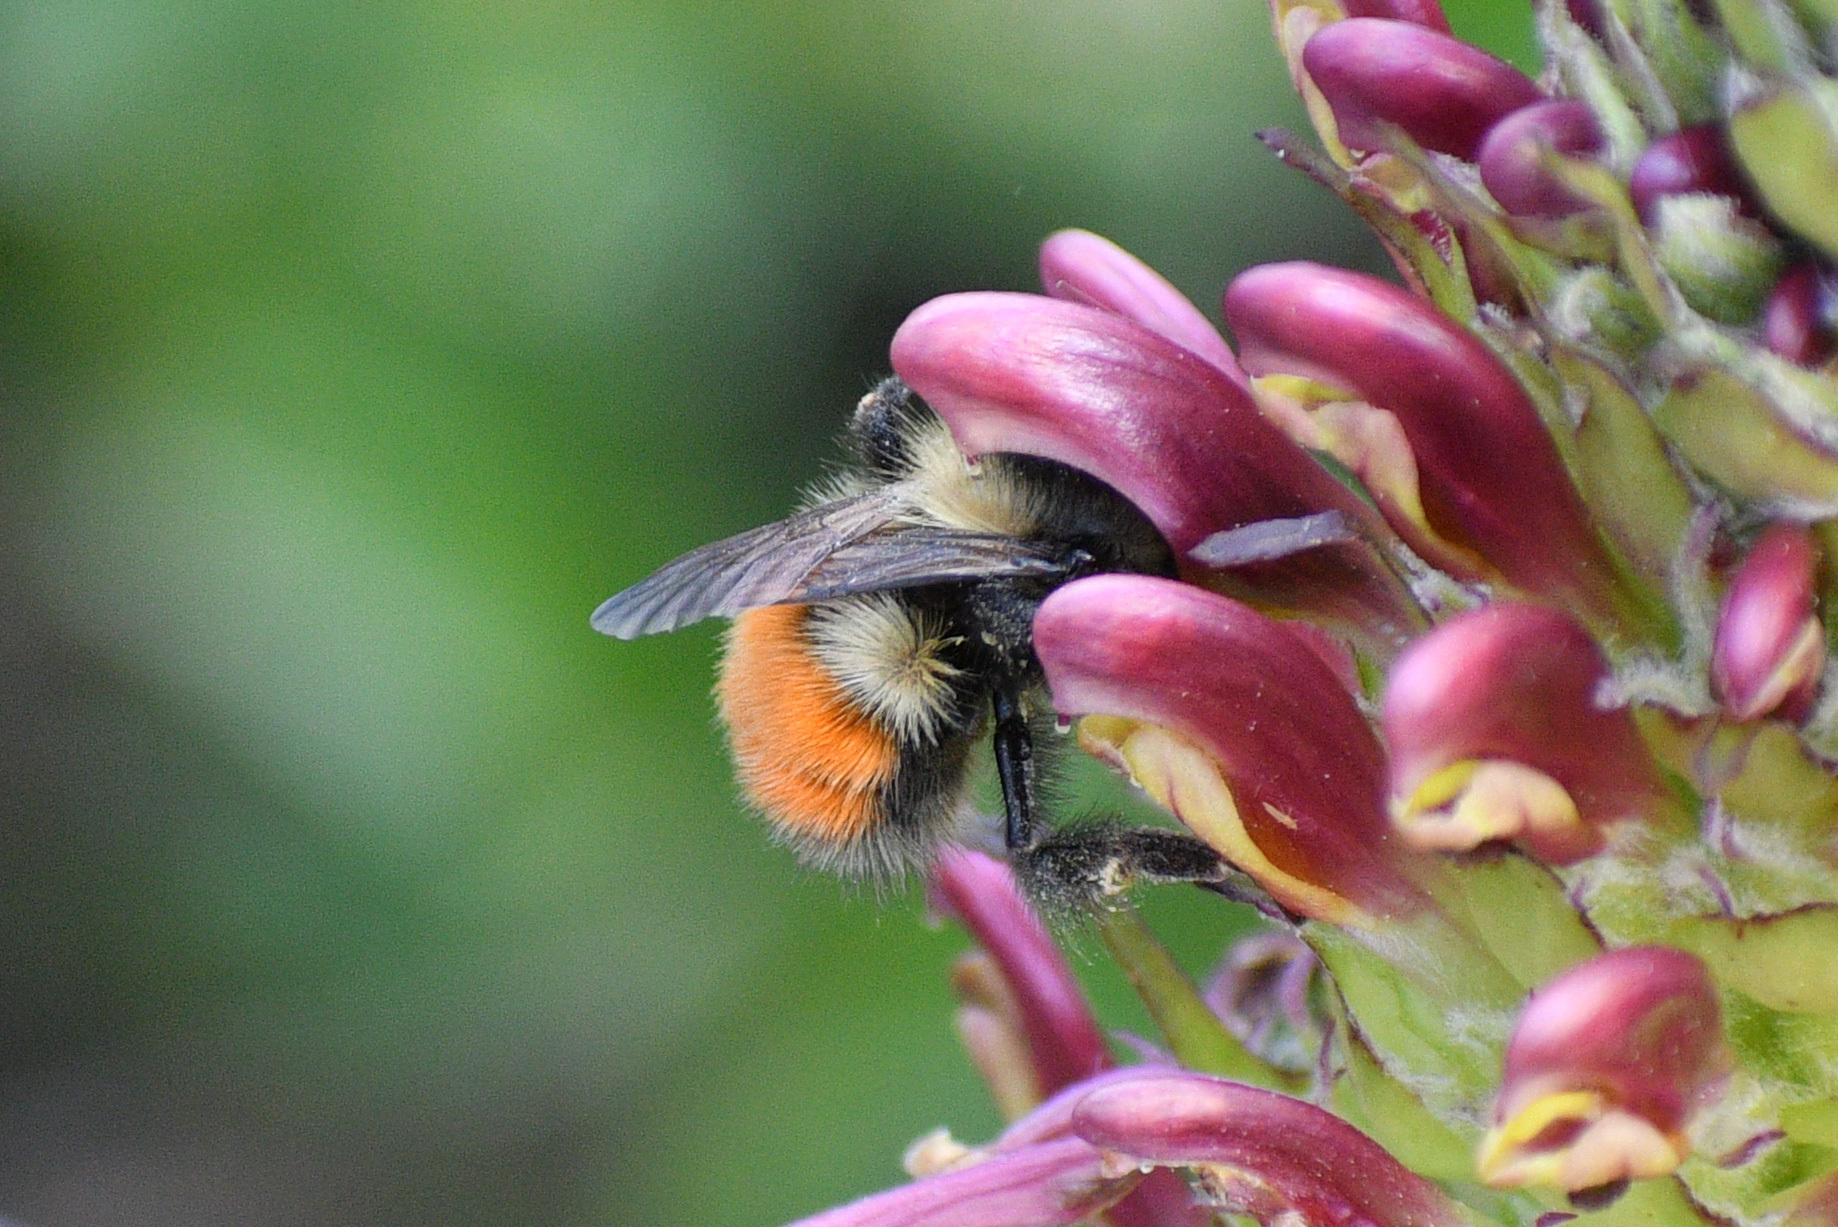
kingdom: Animalia
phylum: Arthropoda
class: Insecta
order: Hymenoptera
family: Apidae
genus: Bombus
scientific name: Bombus melanopygus
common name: Black tail bumble bee
